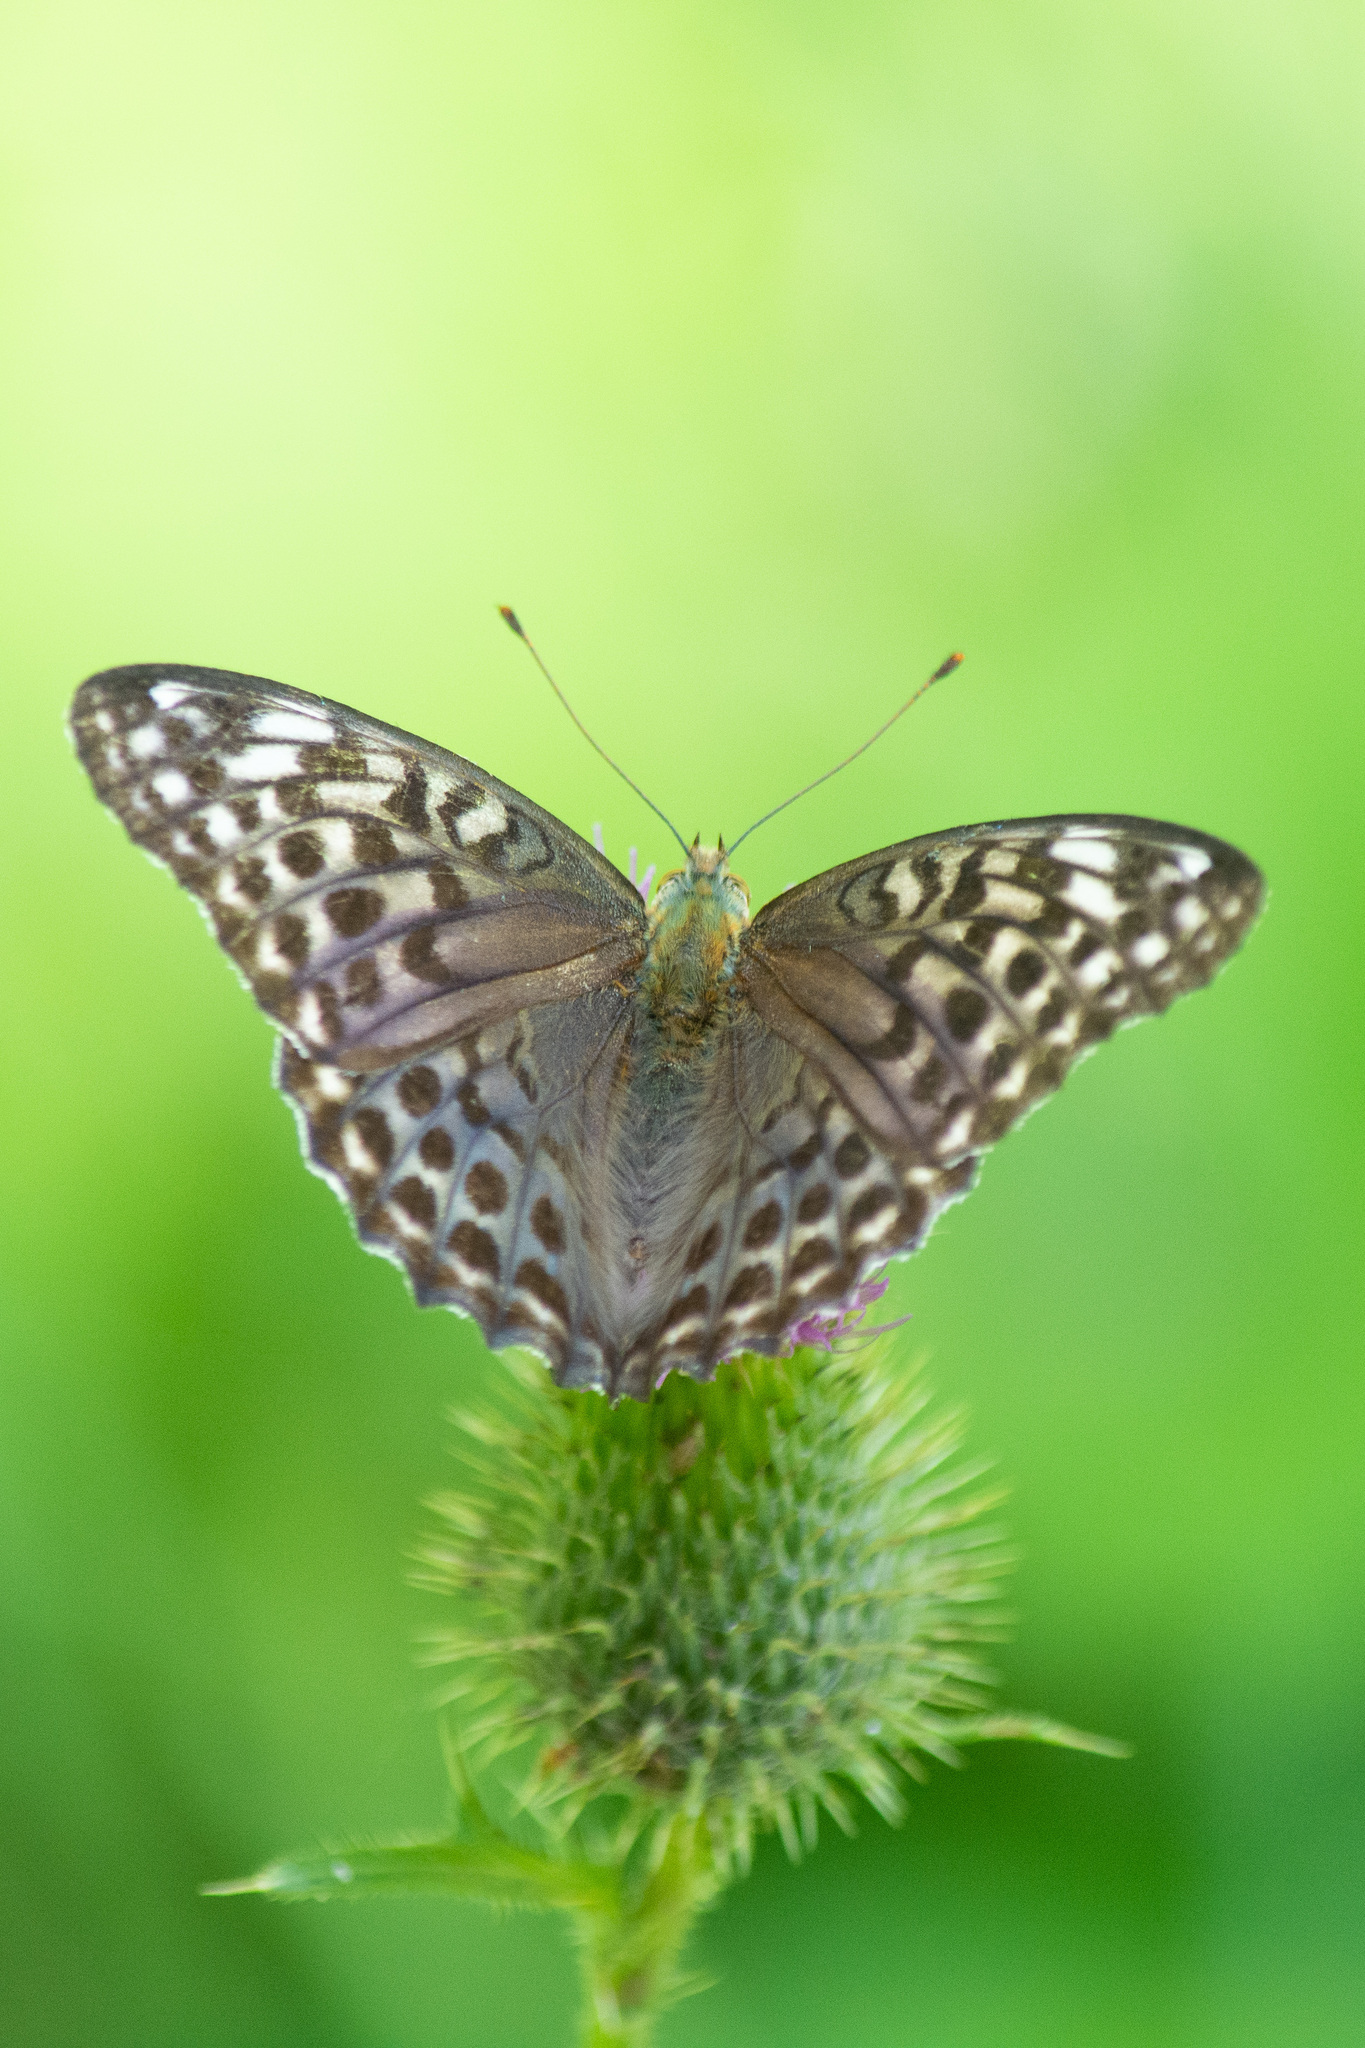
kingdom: Animalia
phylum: Arthropoda
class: Insecta
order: Lepidoptera
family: Nymphalidae
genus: Argynnis
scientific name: Argynnis paphia
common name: Silver-washed fritillary
